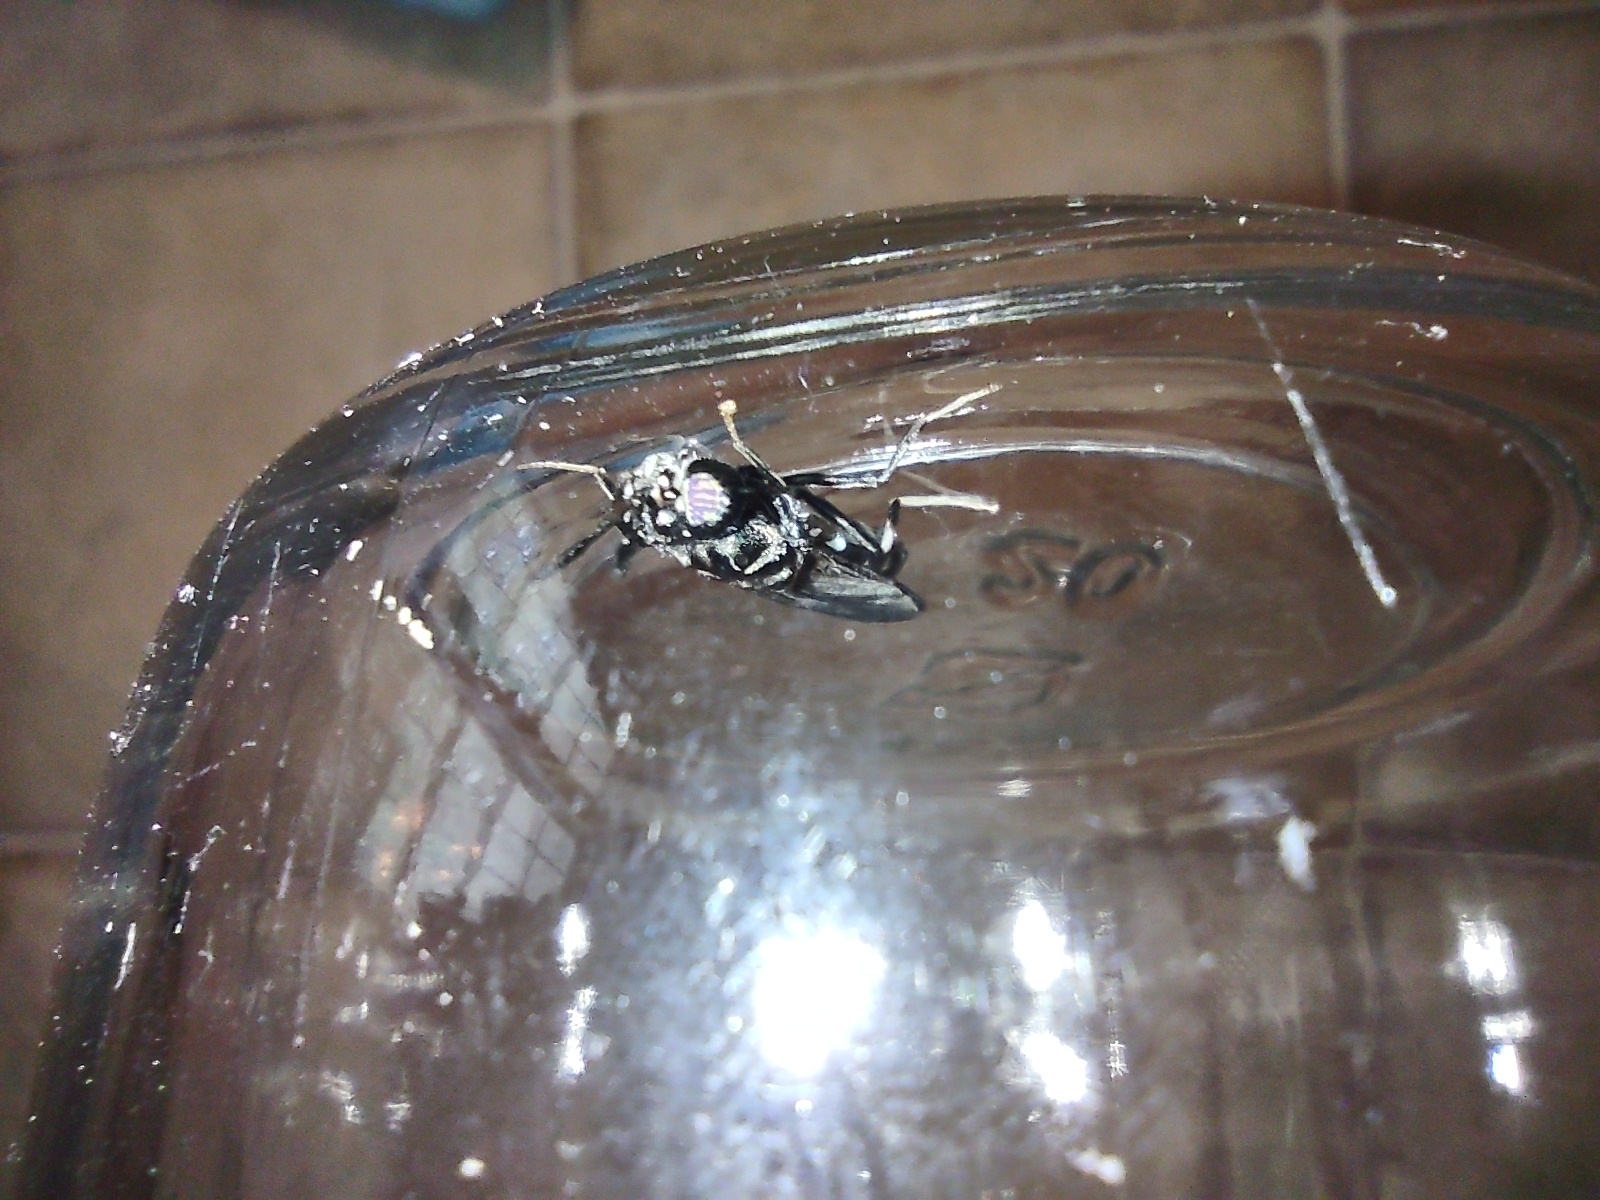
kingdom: Animalia
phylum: Arthropoda
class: Insecta
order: Diptera
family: Stratiomyidae
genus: Hermetia
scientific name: Hermetia illucens
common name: Black soldier fly
